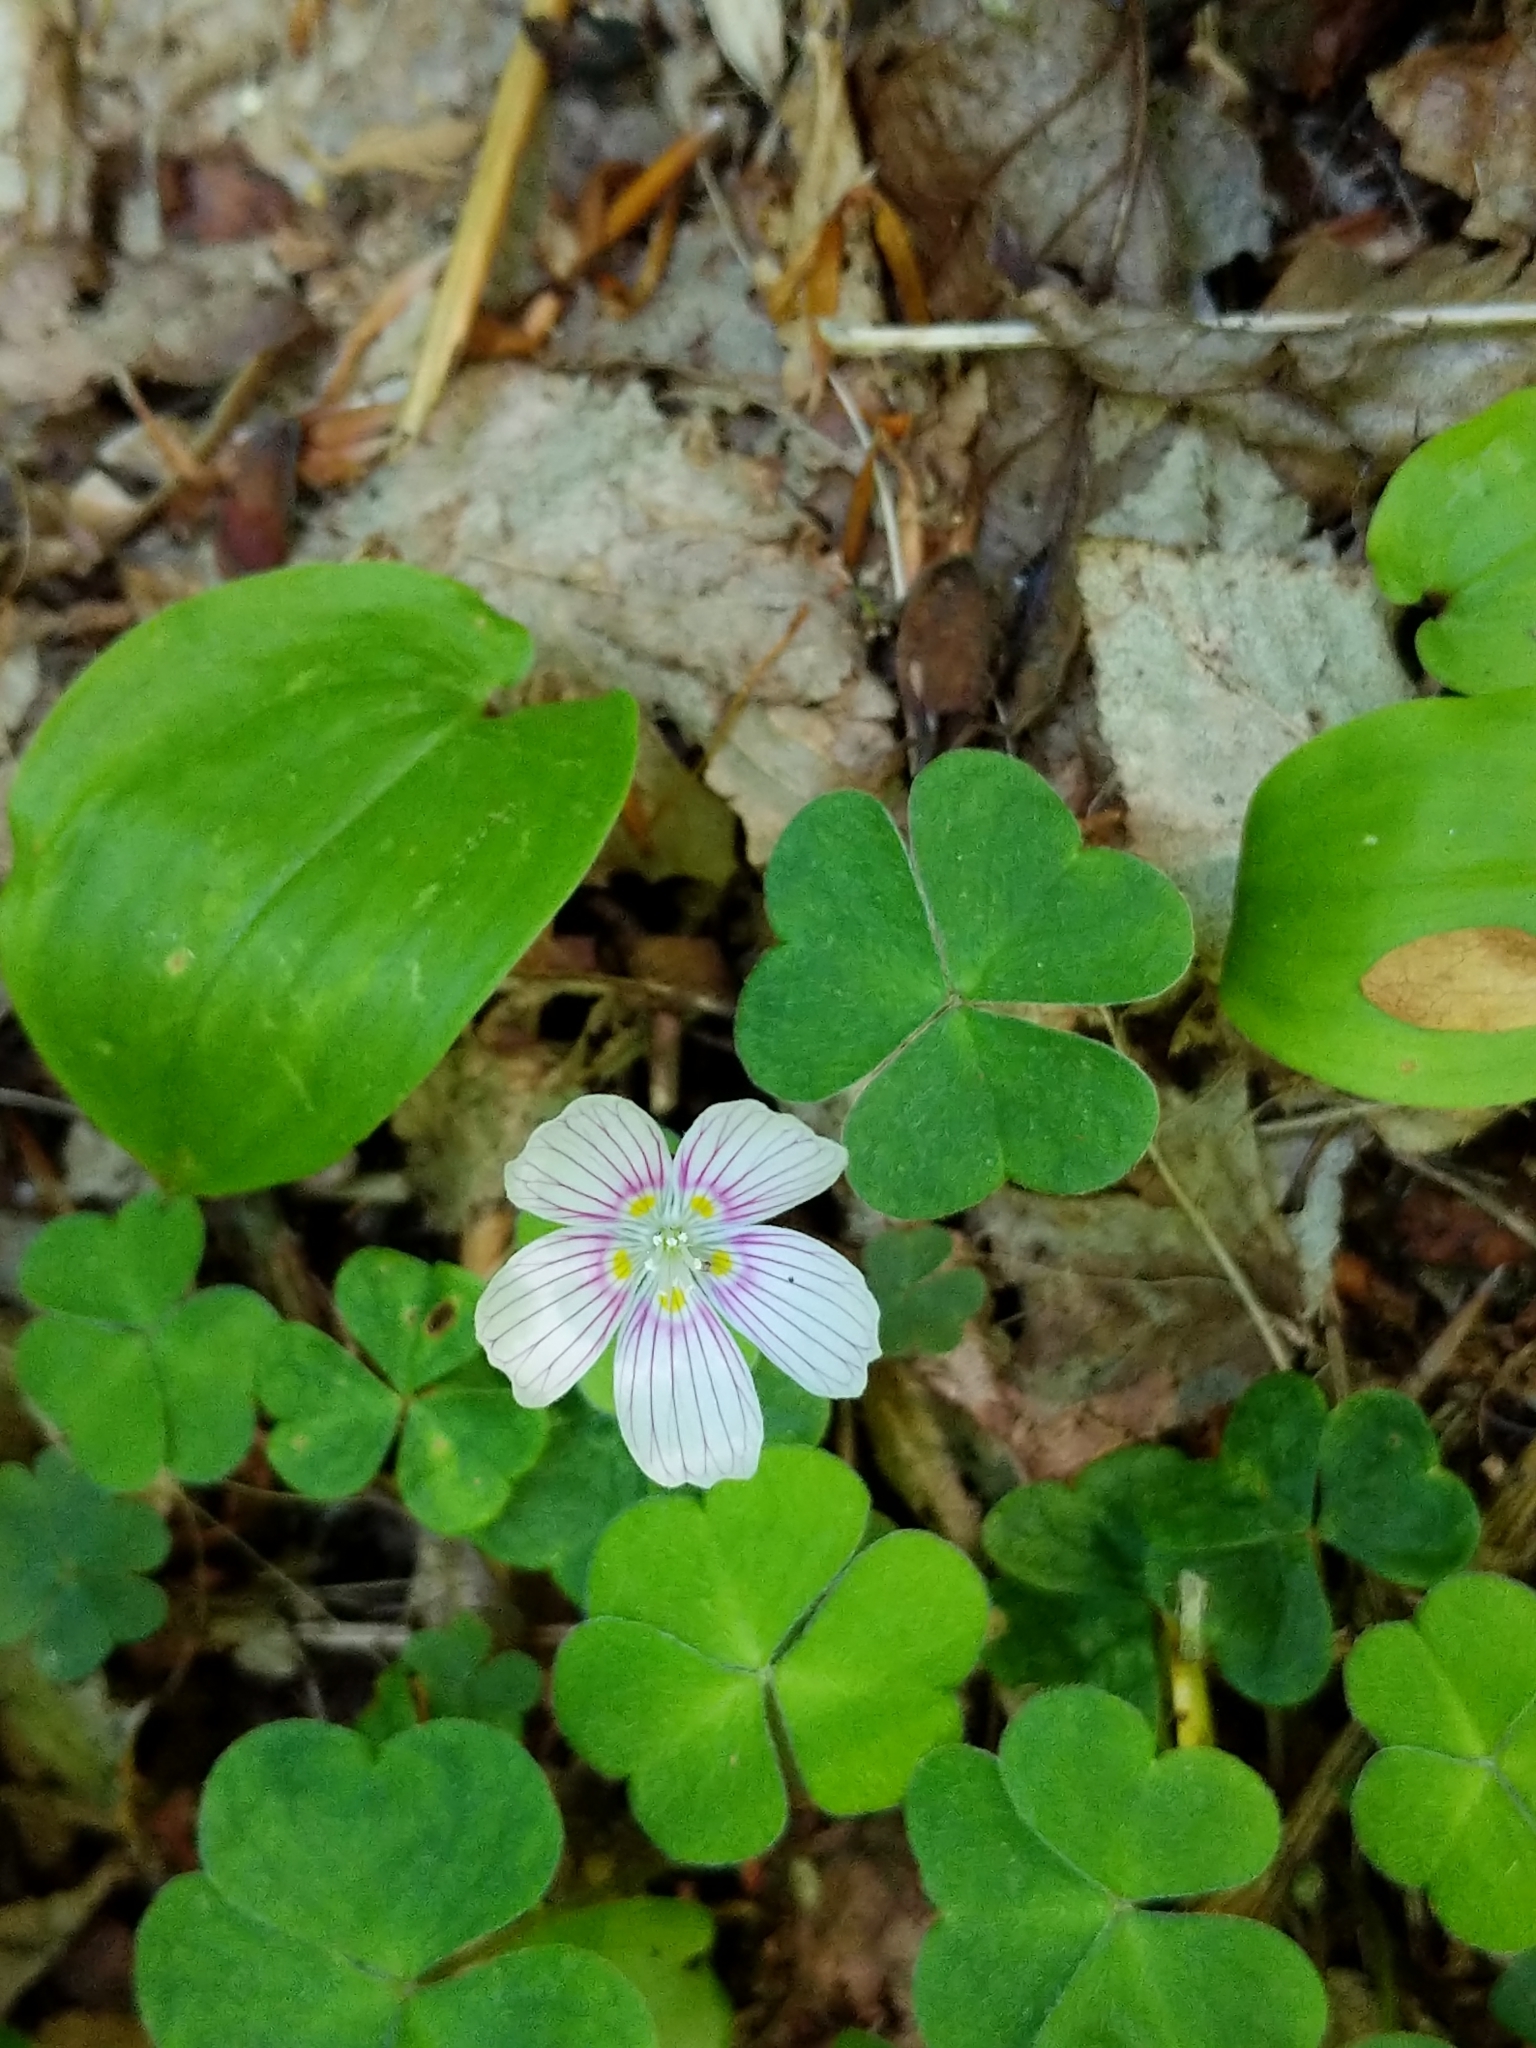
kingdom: Plantae
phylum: Tracheophyta
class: Magnoliopsida
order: Oxalidales
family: Oxalidaceae
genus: Oxalis
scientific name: Oxalis montana
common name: American wood-sorrel
